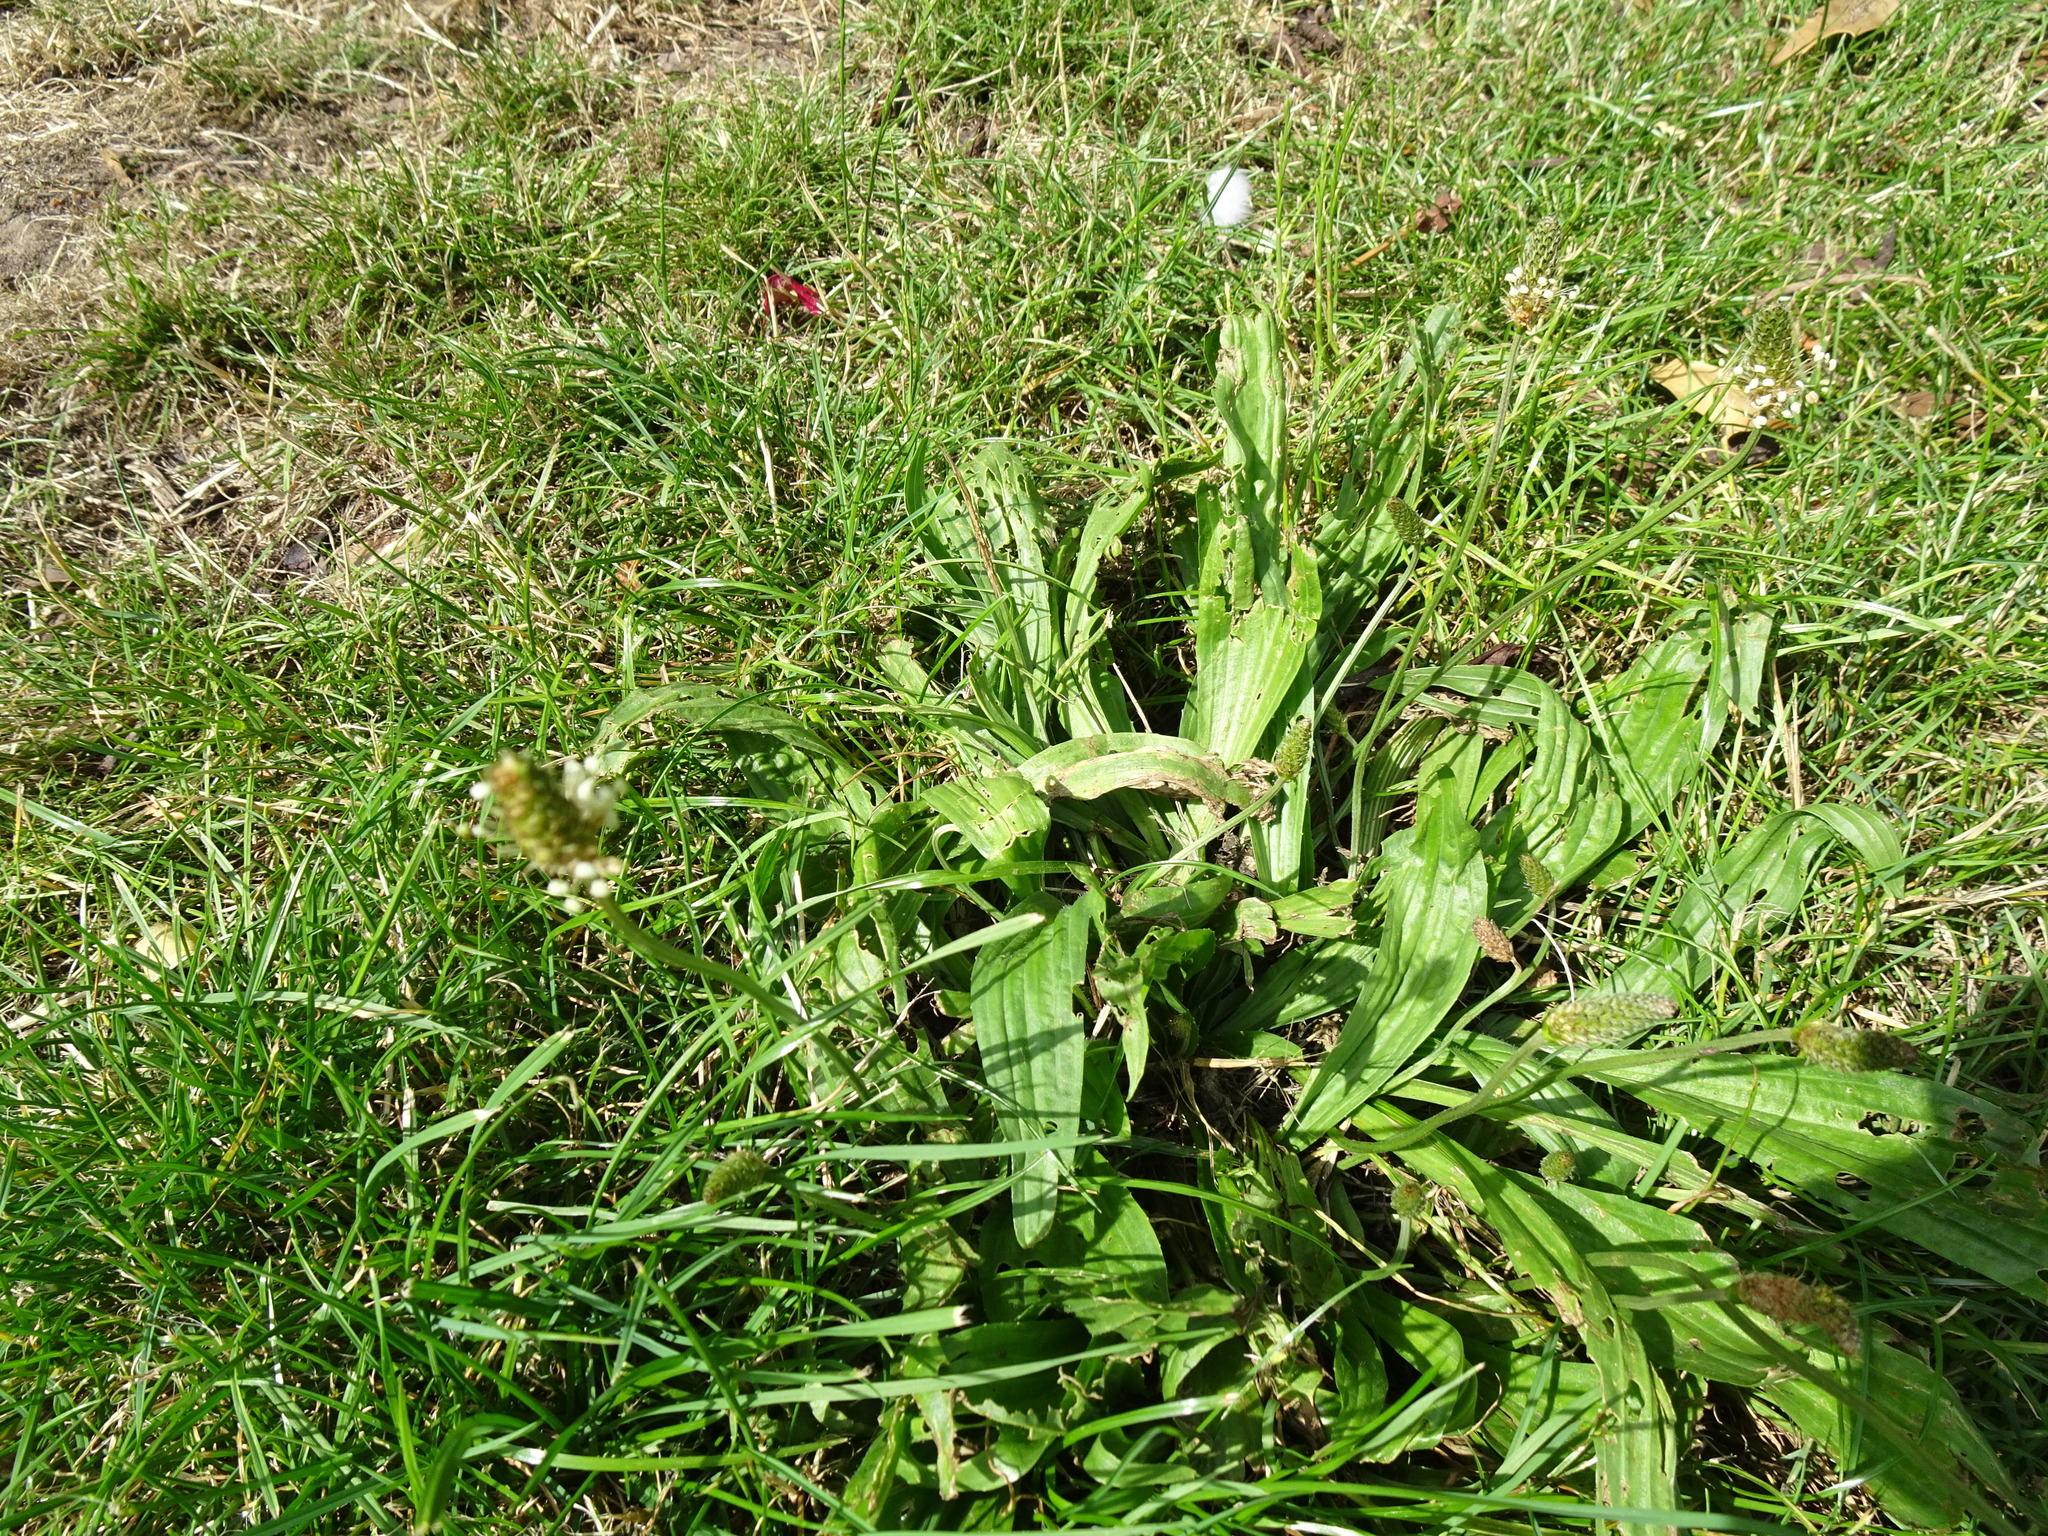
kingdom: Plantae
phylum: Tracheophyta
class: Magnoliopsida
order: Lamiales
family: Plantaginaceae
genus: Plantago
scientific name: Plantago lanceolata
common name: Ribwort plantain
